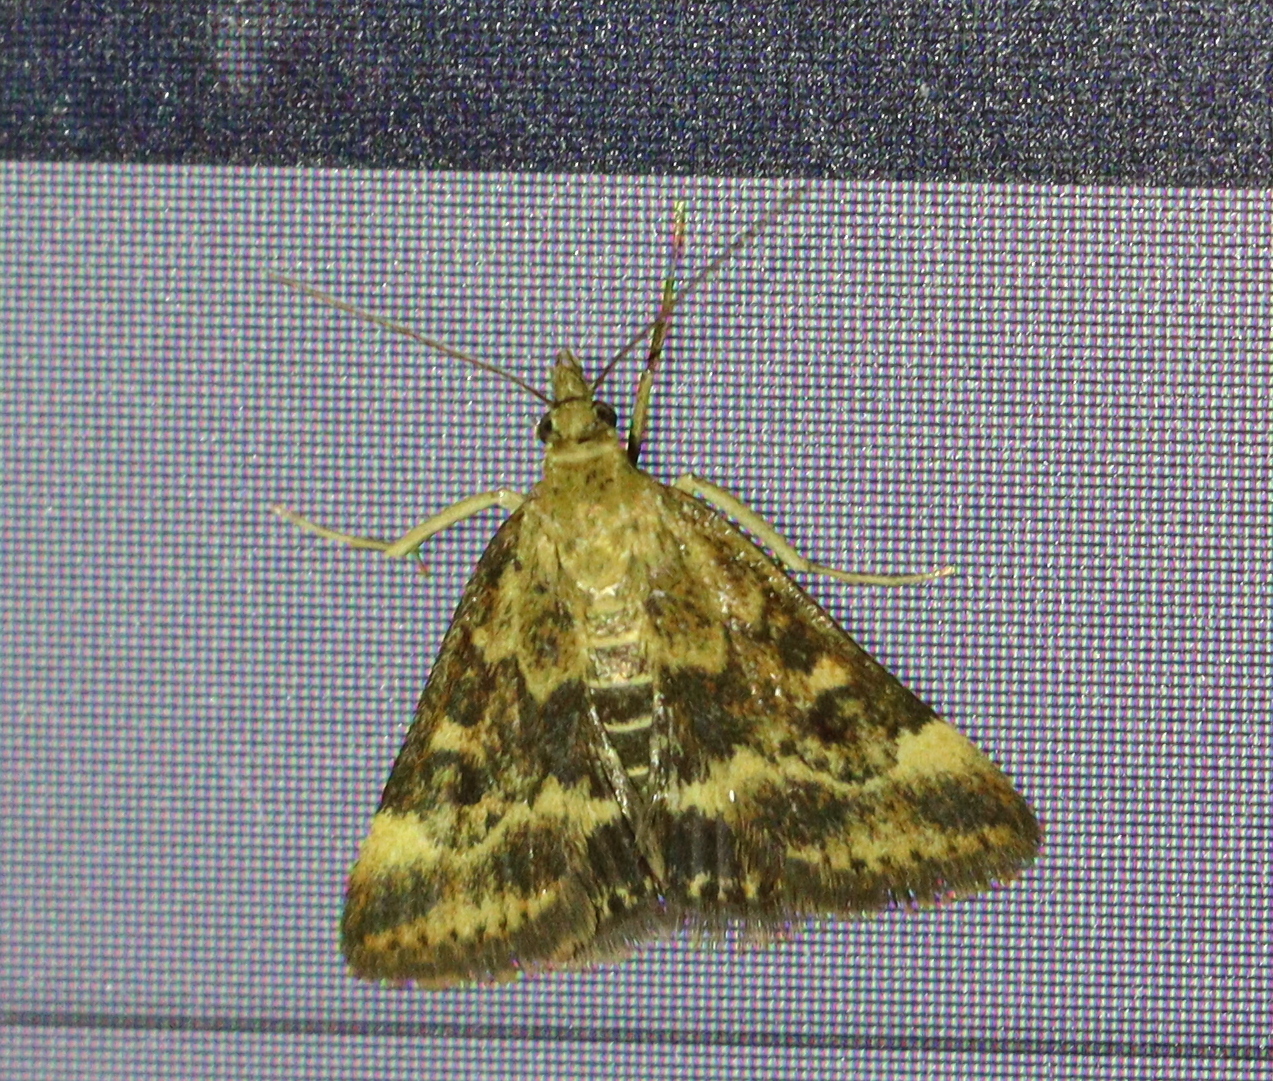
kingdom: Animalia
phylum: Arthropoda
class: Insecta
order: Lepidoptera
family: Crambidae
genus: Pyrausta
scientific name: Pyrausta despicata
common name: Straw-barred pearl
